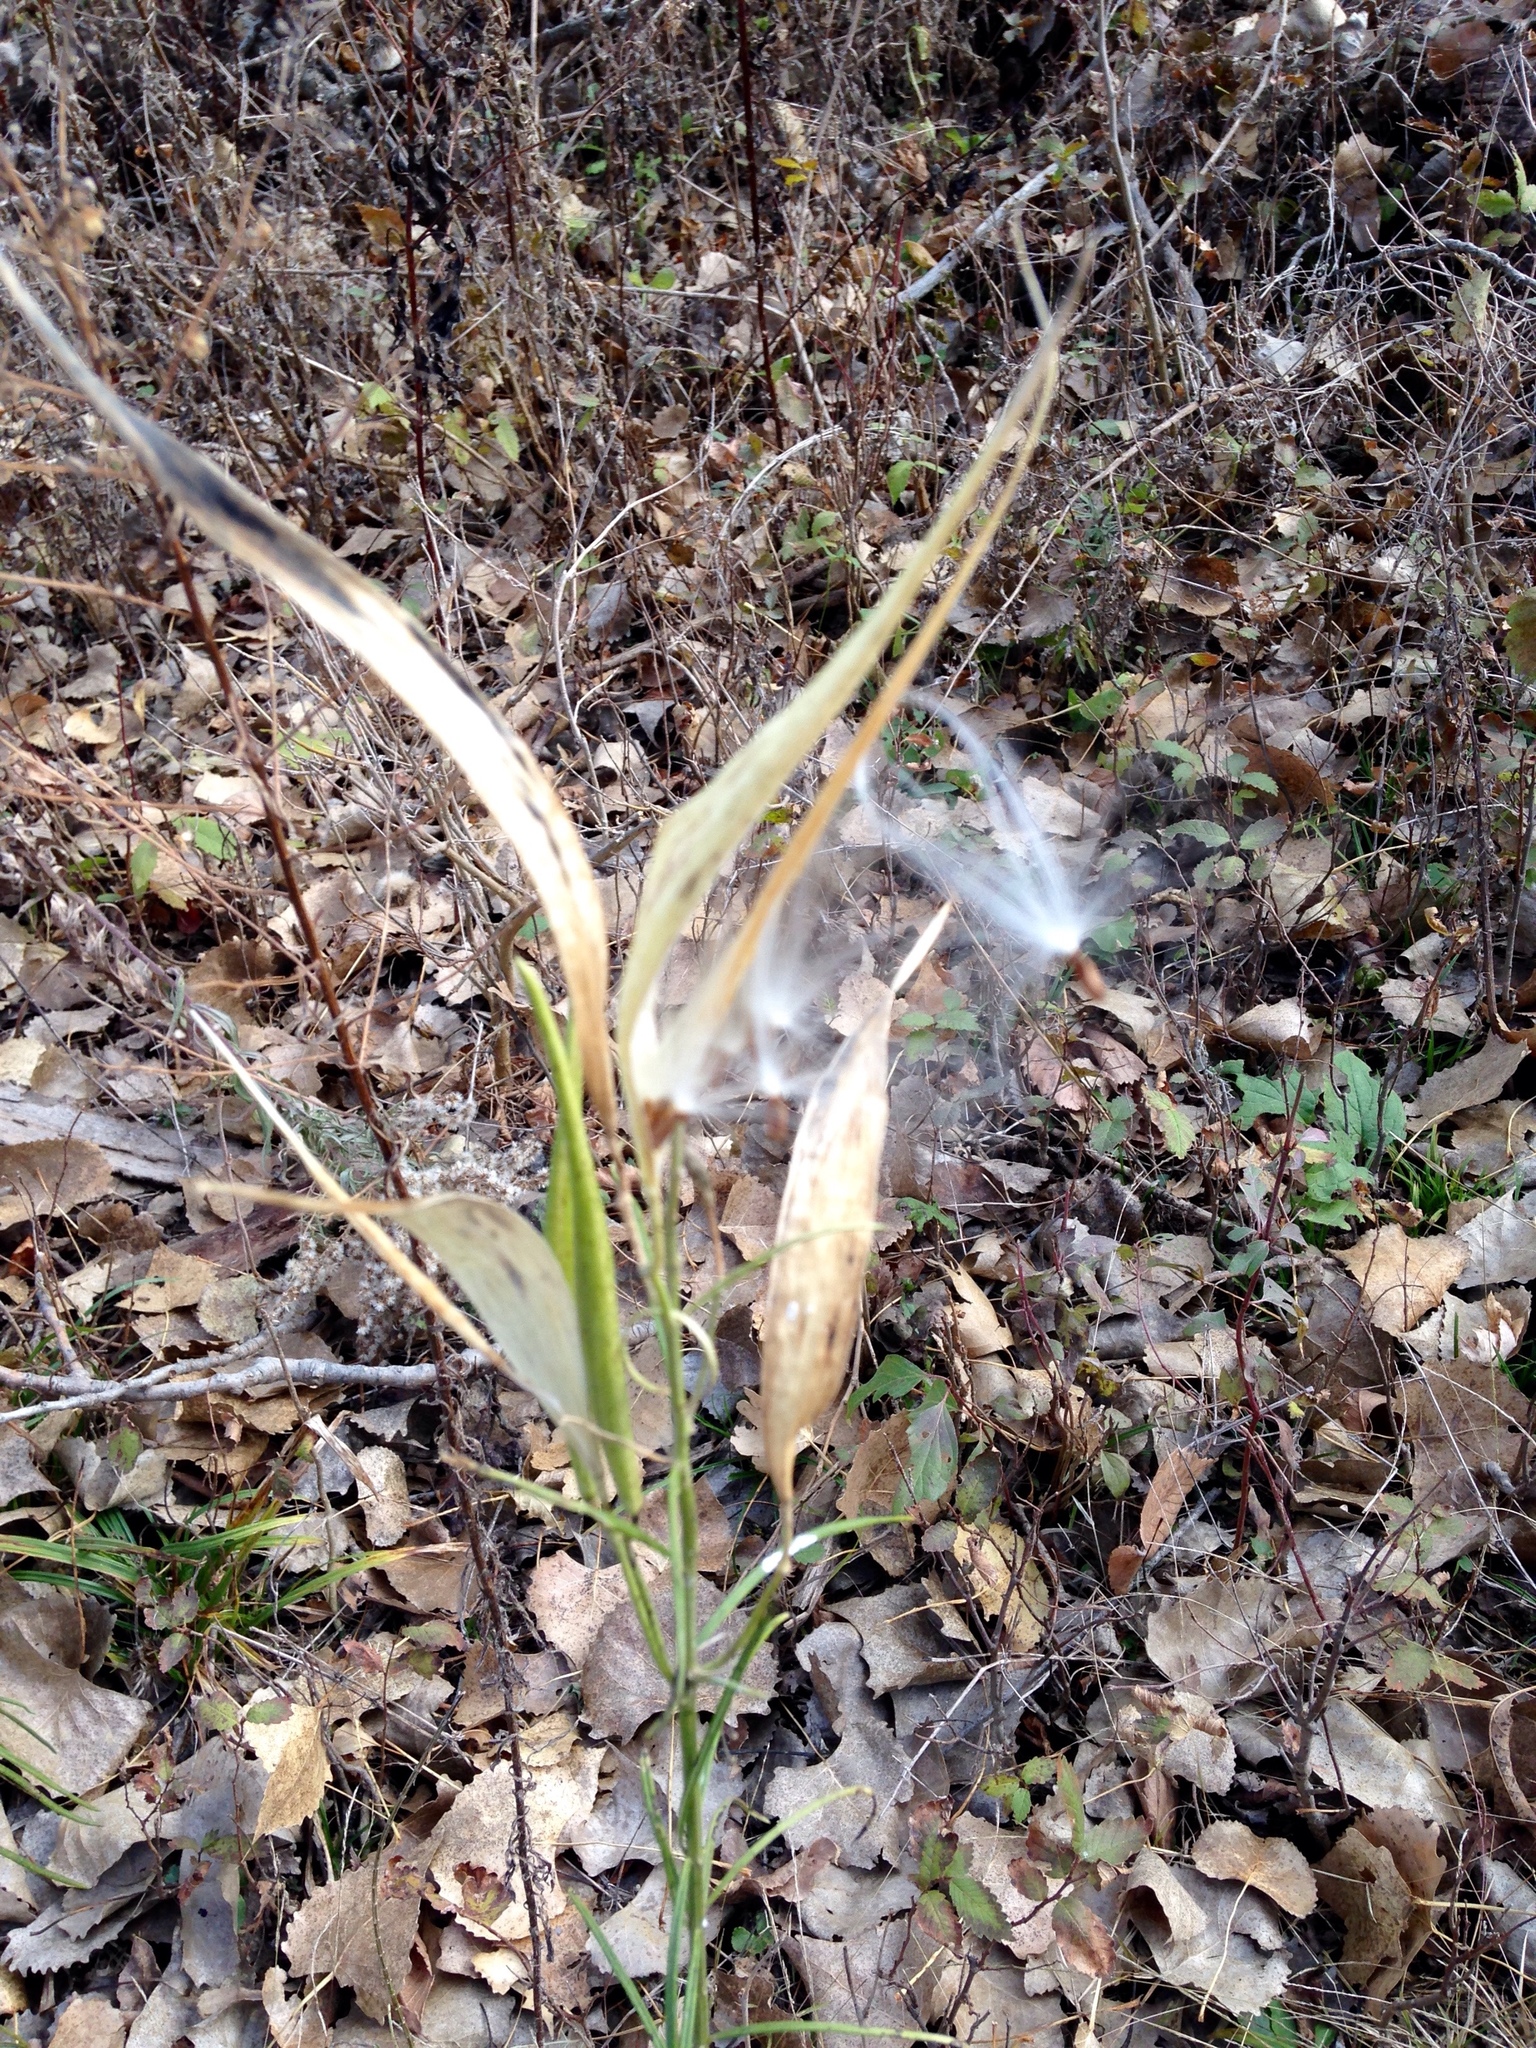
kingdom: Plantae
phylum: Tracheophyta
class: Magnoliopsida
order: Gentianales
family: Apocynaceae
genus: Asclepias
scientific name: Asclepias verticillata
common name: Eastern whorled milkweed
